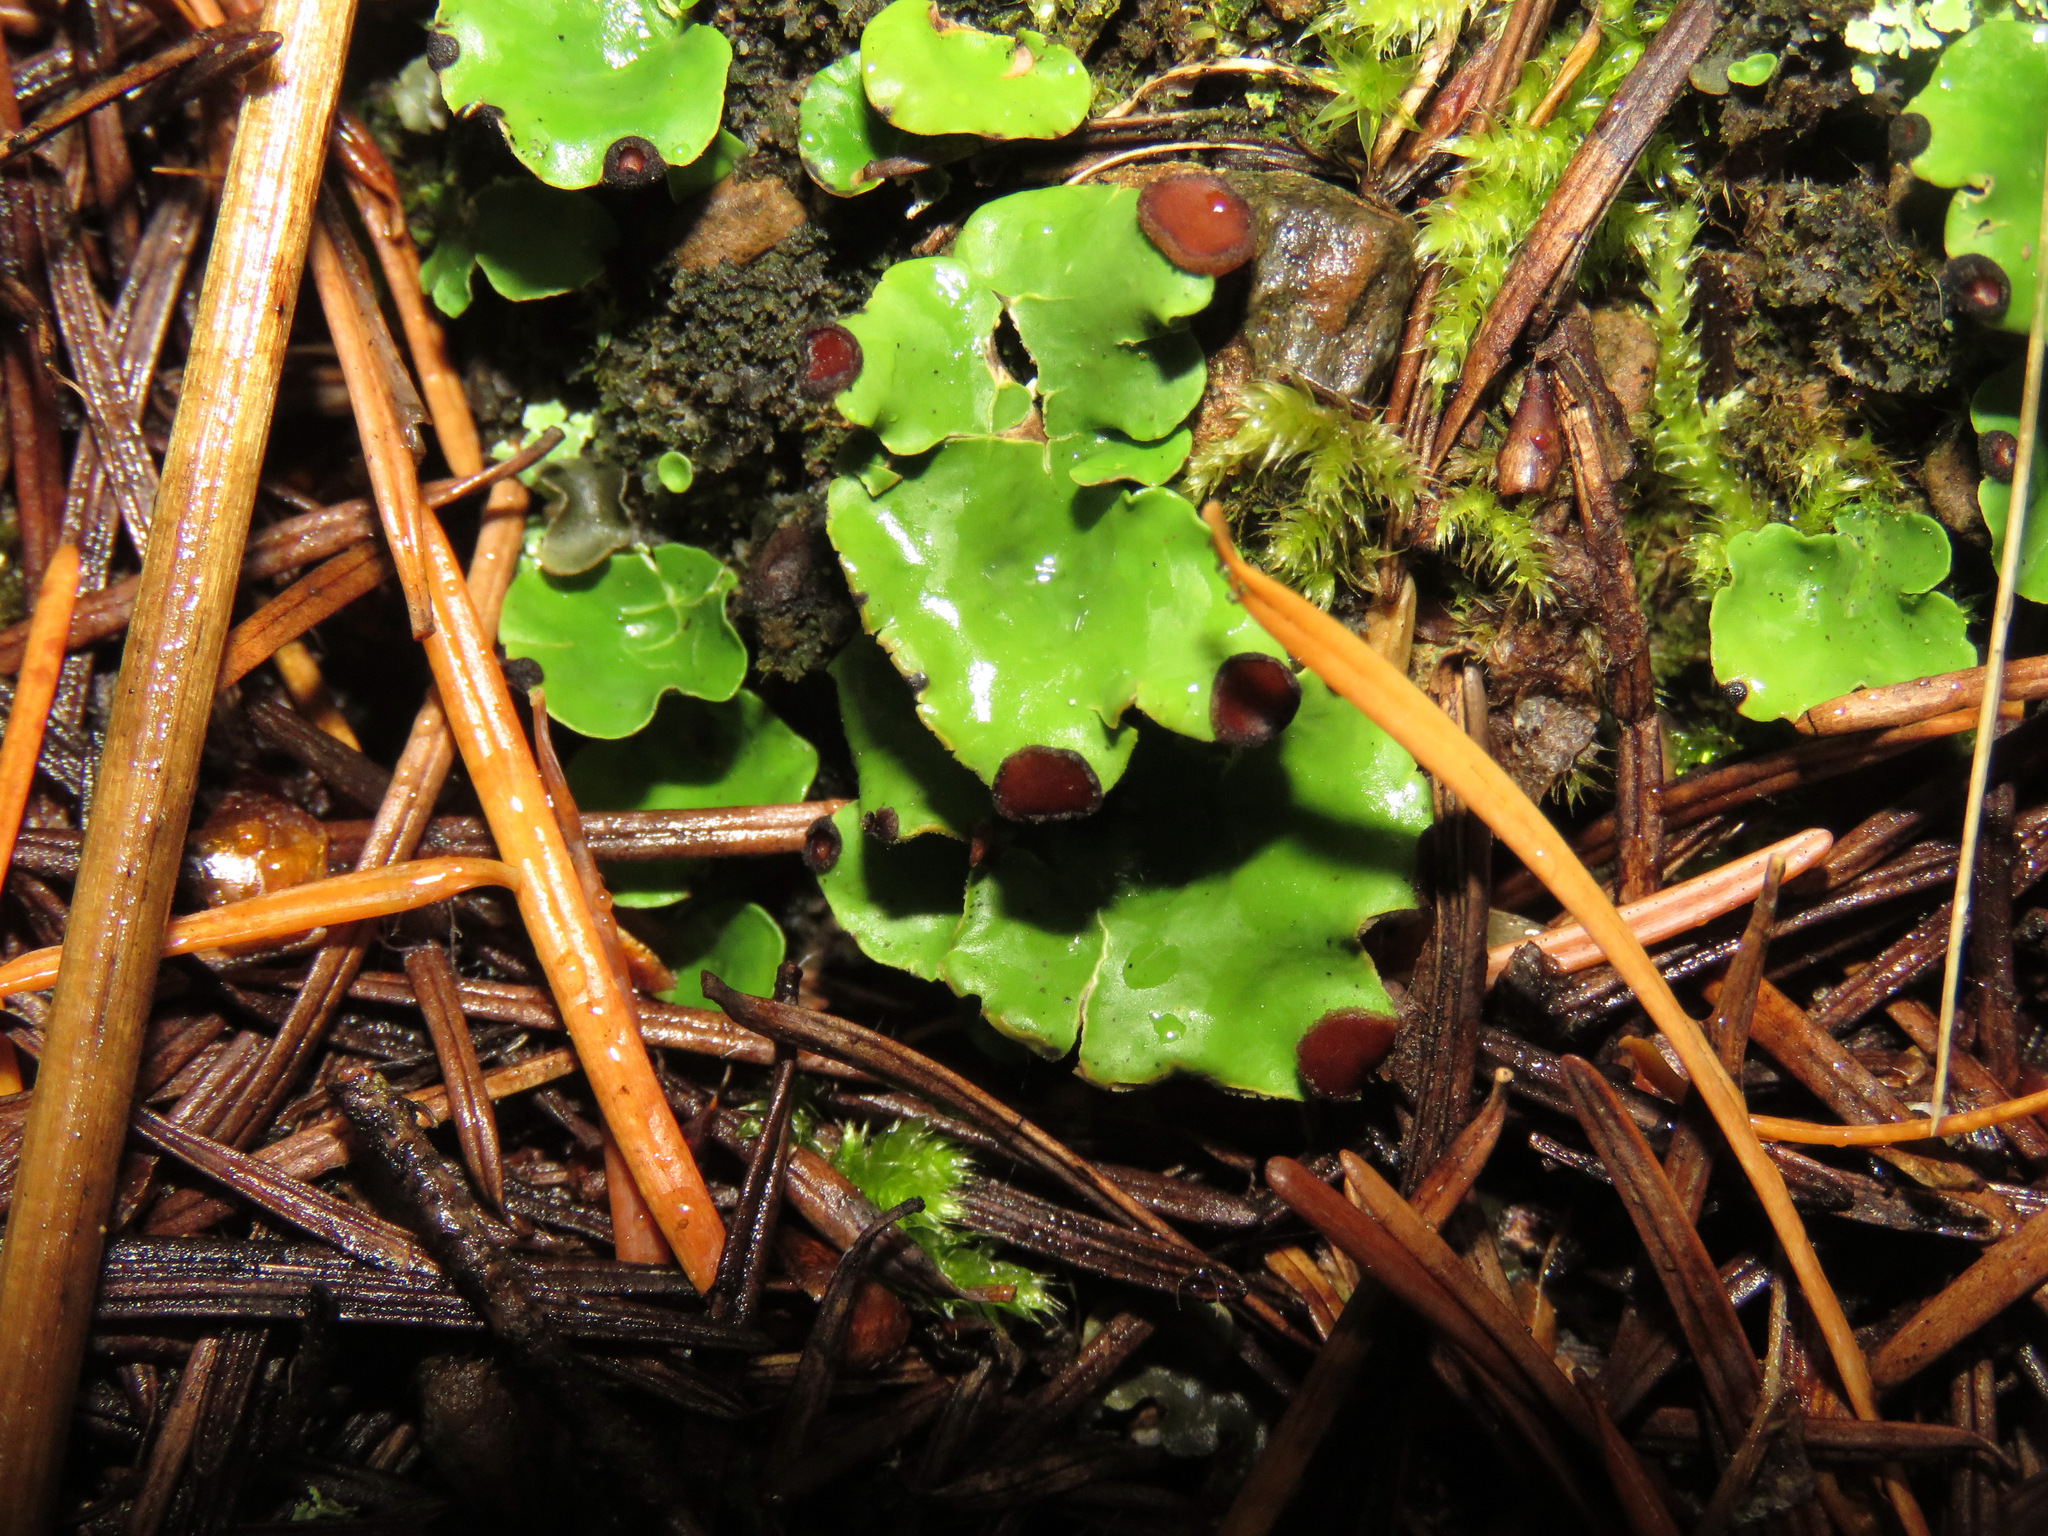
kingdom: Fungi
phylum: Ascomycota
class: Lecanoromycetes
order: Peltigerales
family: Peltigeraceae
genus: Peltigera
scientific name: Peltigera venosa
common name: Pixie gowns lichen
